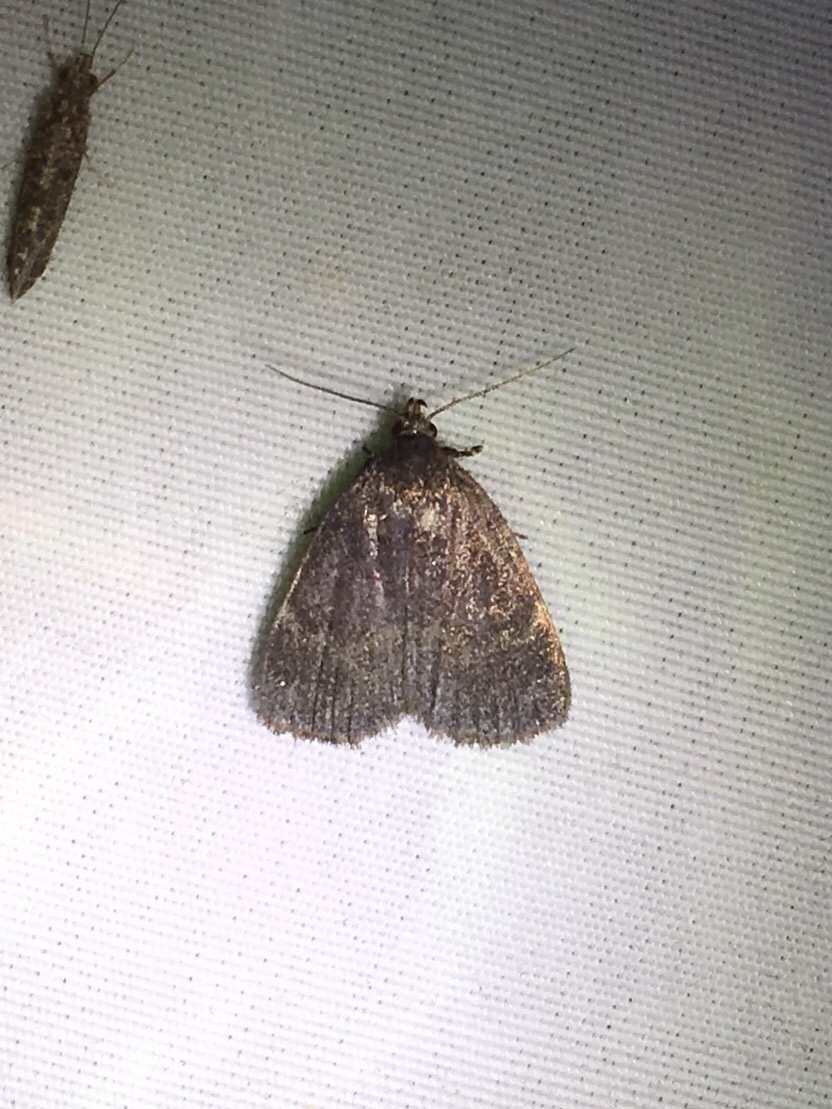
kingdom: Animalia
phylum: Arthropoda
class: Insecta
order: Lepidoptera
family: Erebidae
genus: Idia
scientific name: Idia rotundalis
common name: Rotund idia moth
